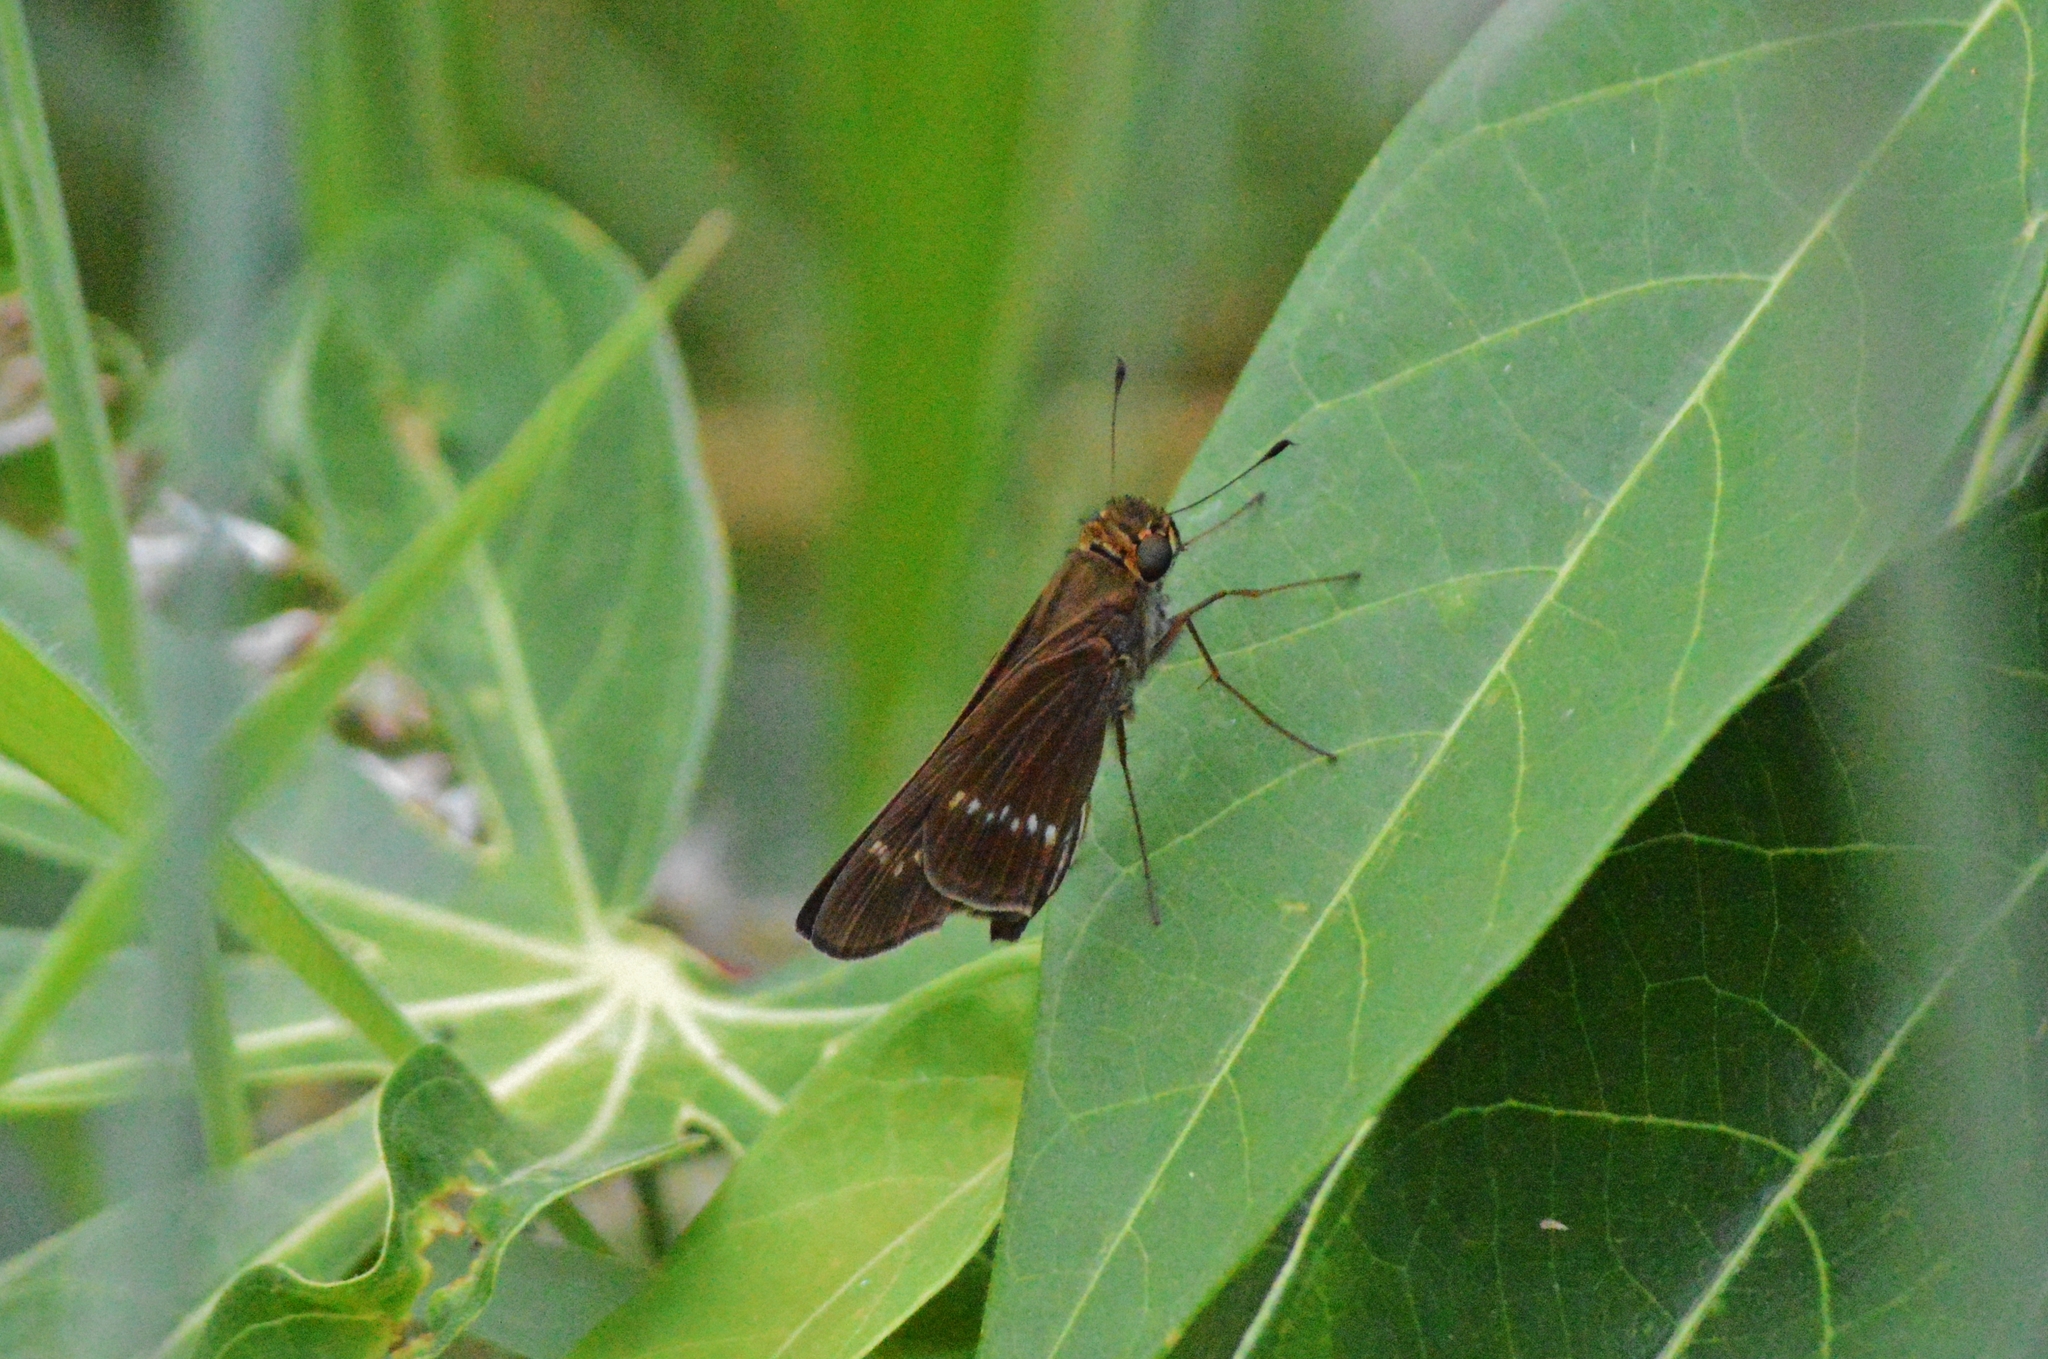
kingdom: Animalia
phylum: Arthropoda
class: Insecta
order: Lepidoptera
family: Hesperiidae
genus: Turesis
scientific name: Turesis lucas
